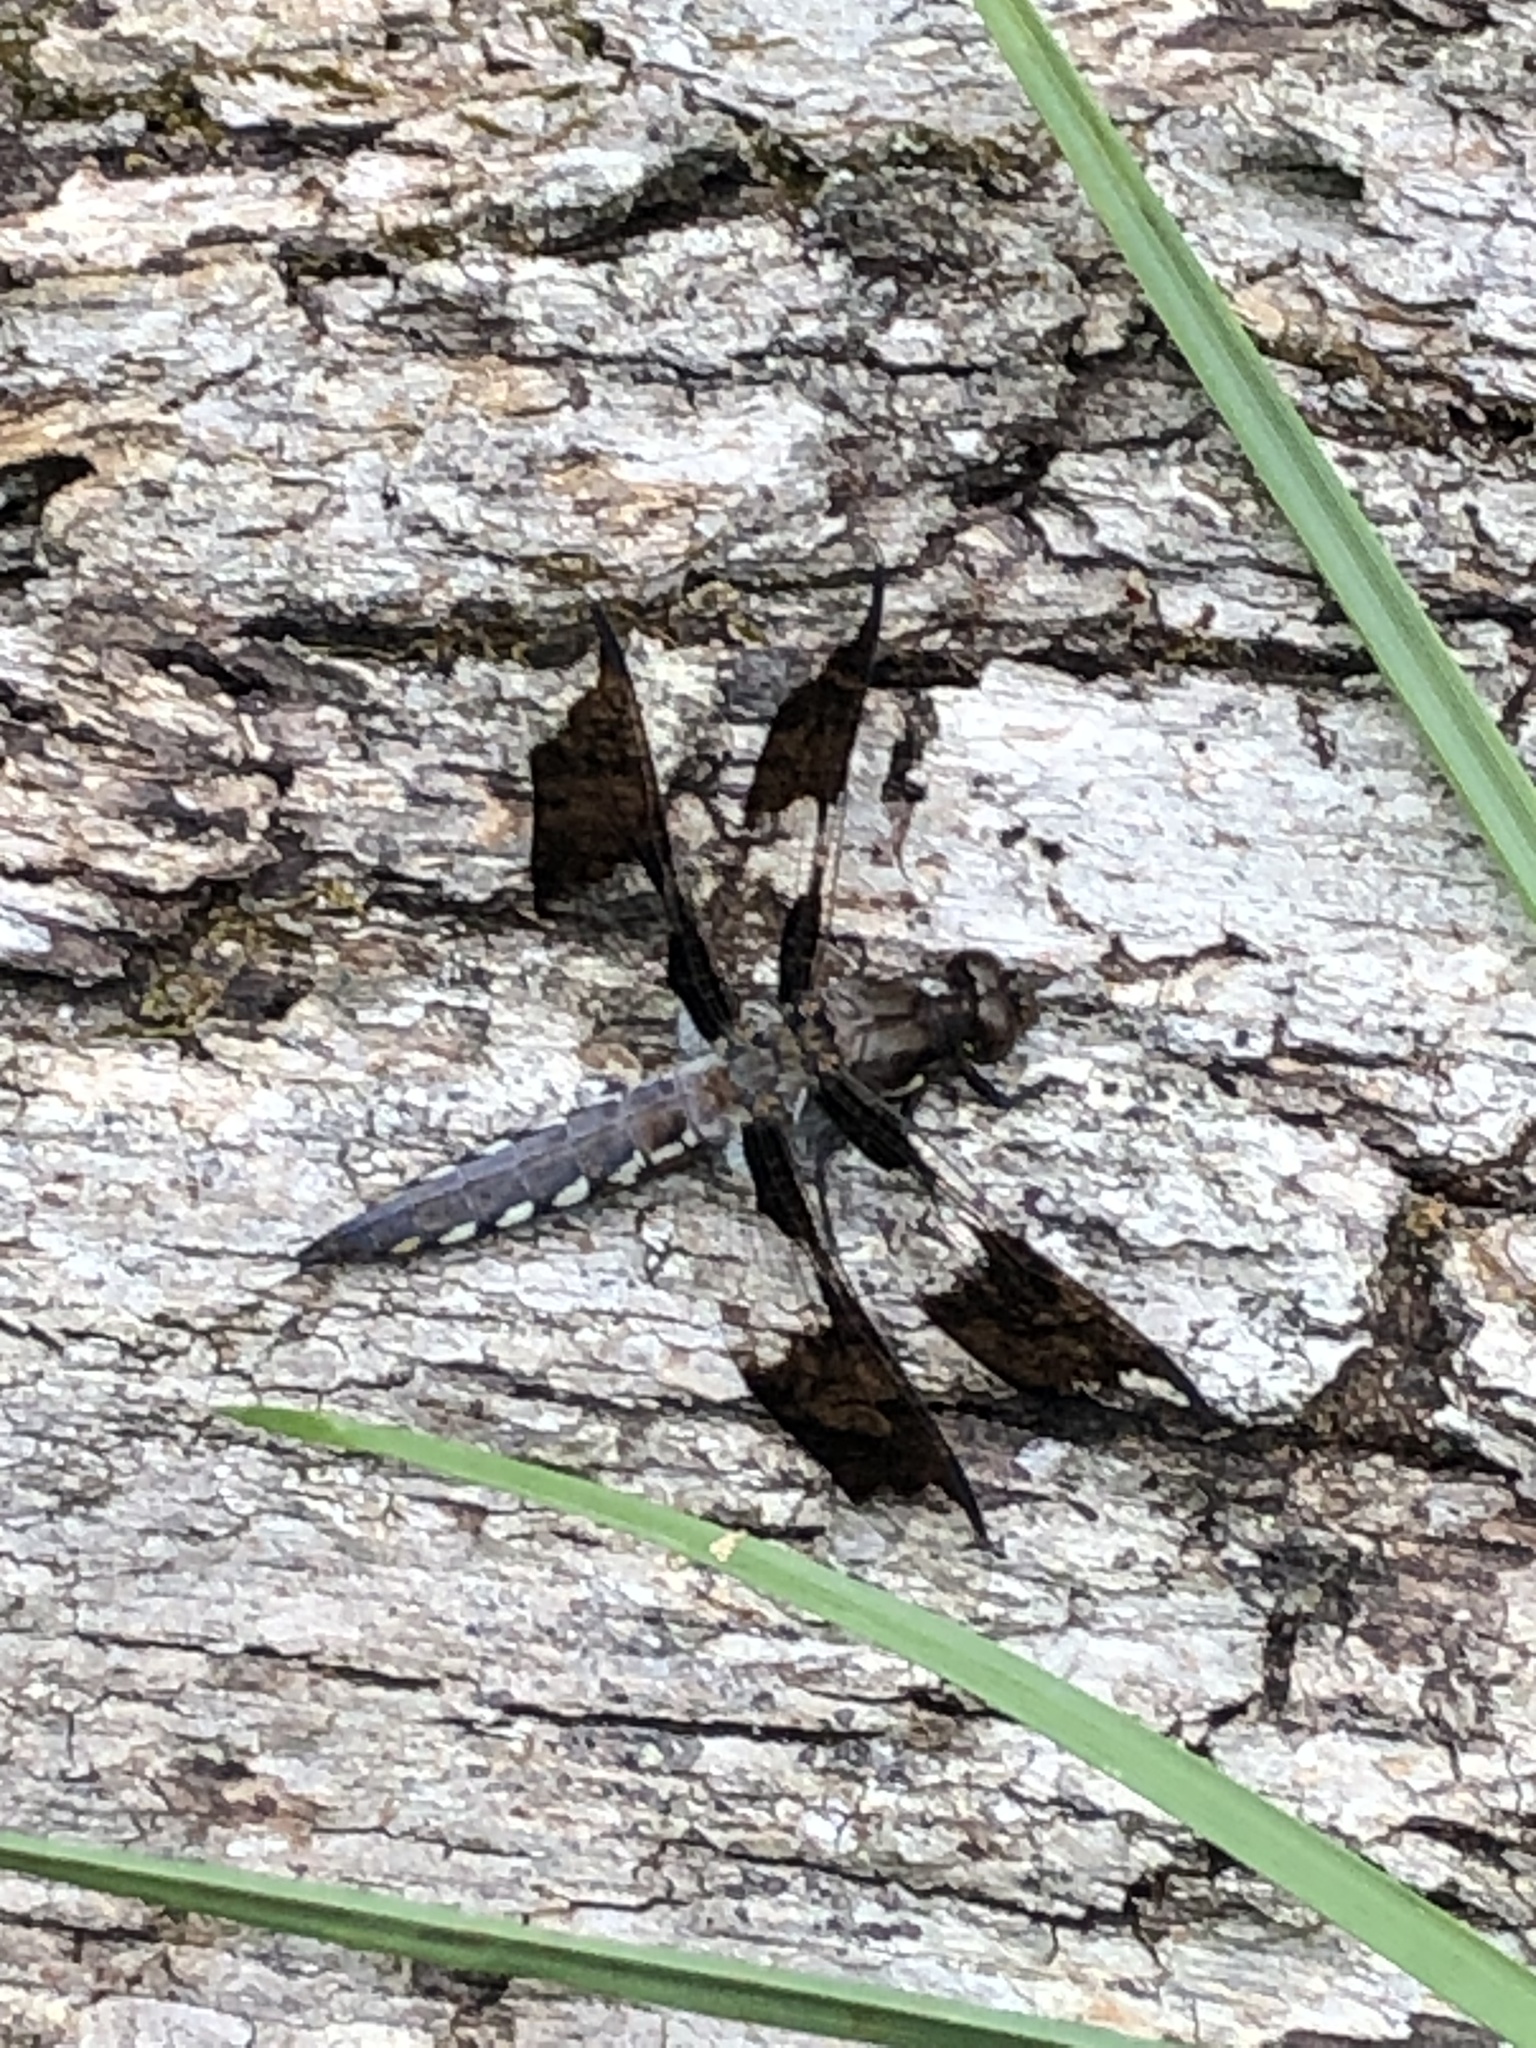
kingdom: Animalia
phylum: Arthropoda
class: Insecta
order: Odonata
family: Libellulidae
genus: Plathemis
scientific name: Plathemis lydia
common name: Common whitetail
